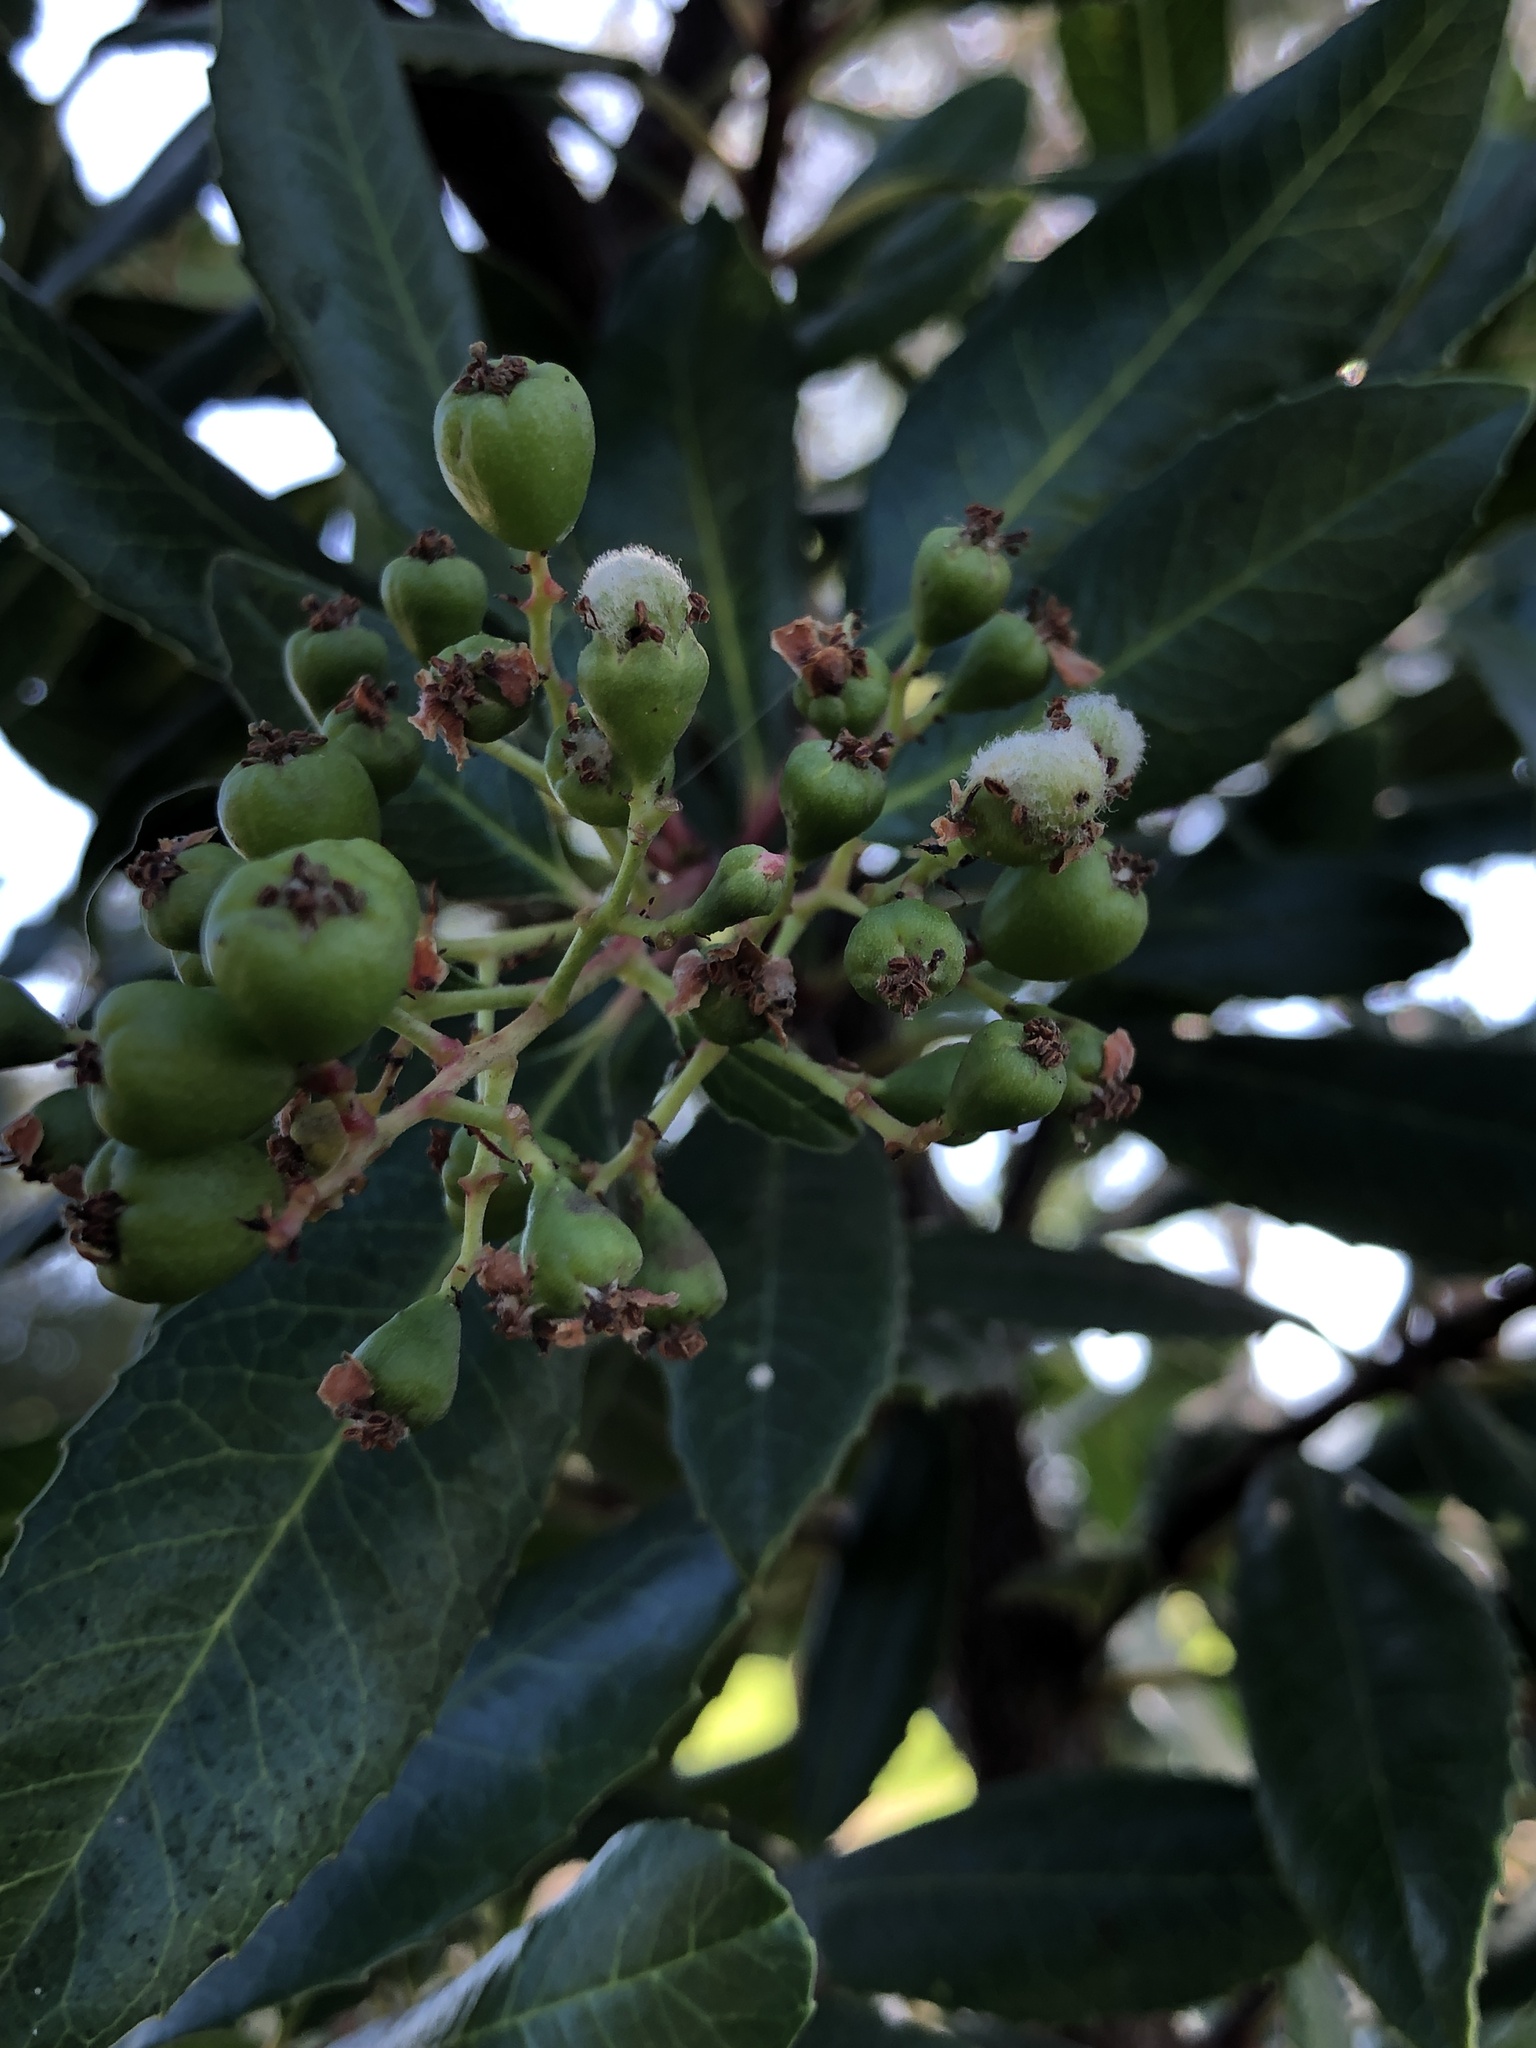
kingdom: Animalia
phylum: Arthropoda
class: Insecta
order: Diptera
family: Cecidomyiidae
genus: Asphondylia
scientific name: Asphondylia photiniae
